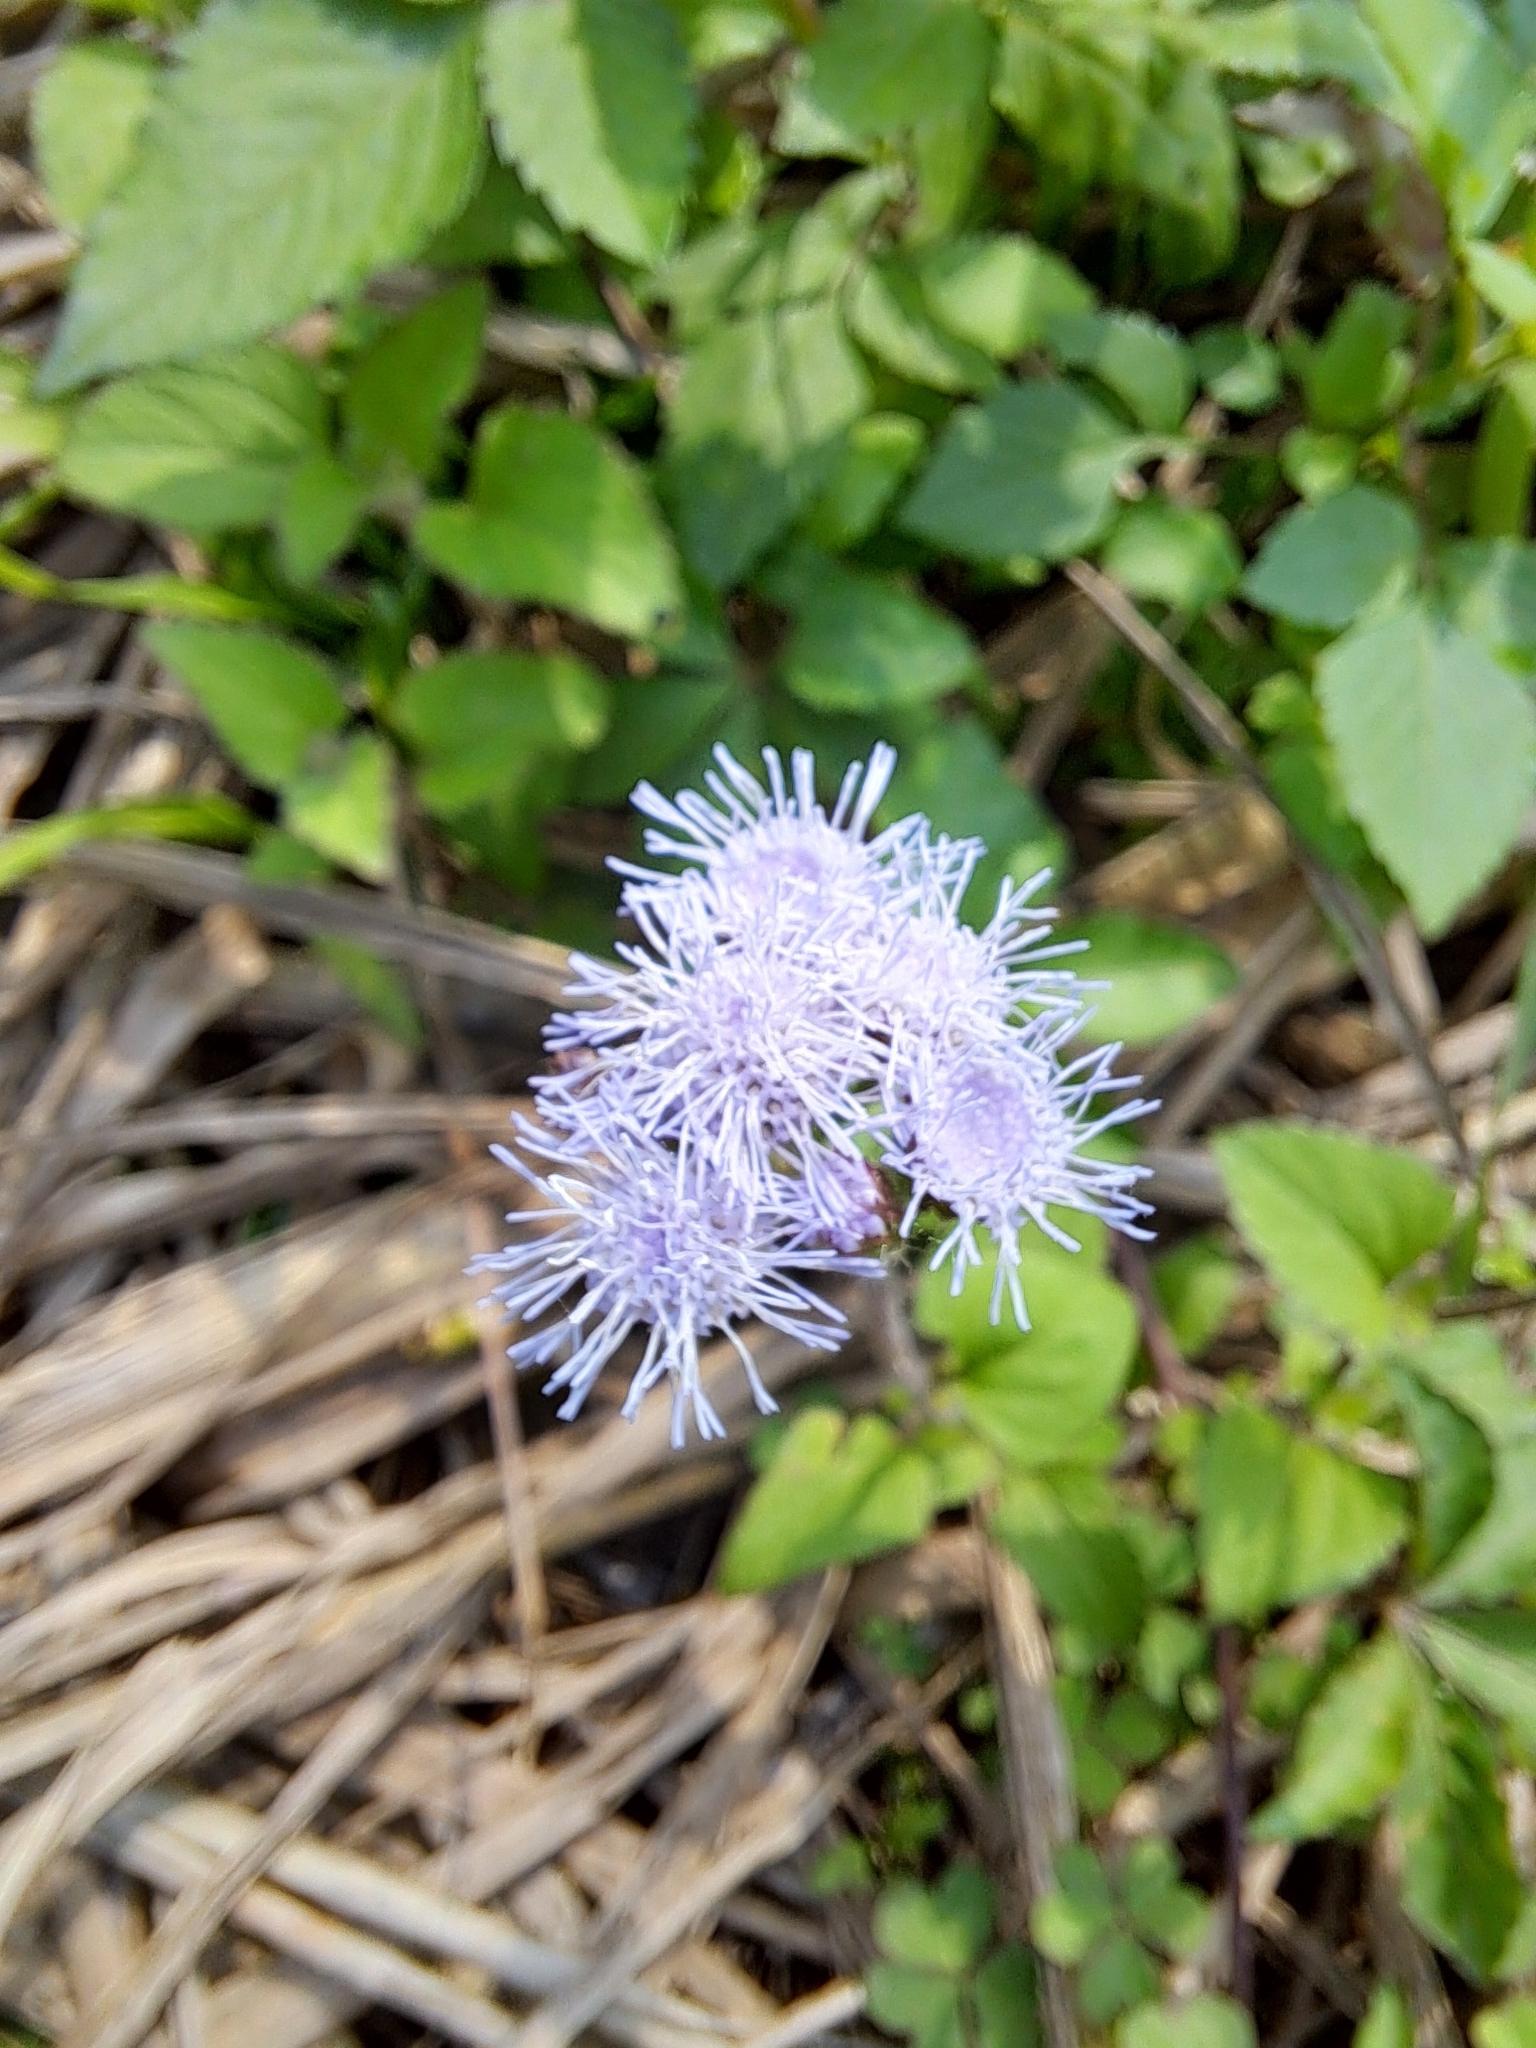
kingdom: Plantae
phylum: Tracheophyta
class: Magnoliopsida
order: Asterales
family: Asteraceae
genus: Ageratum
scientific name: Ageratum houstonianum
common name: Bluemink
